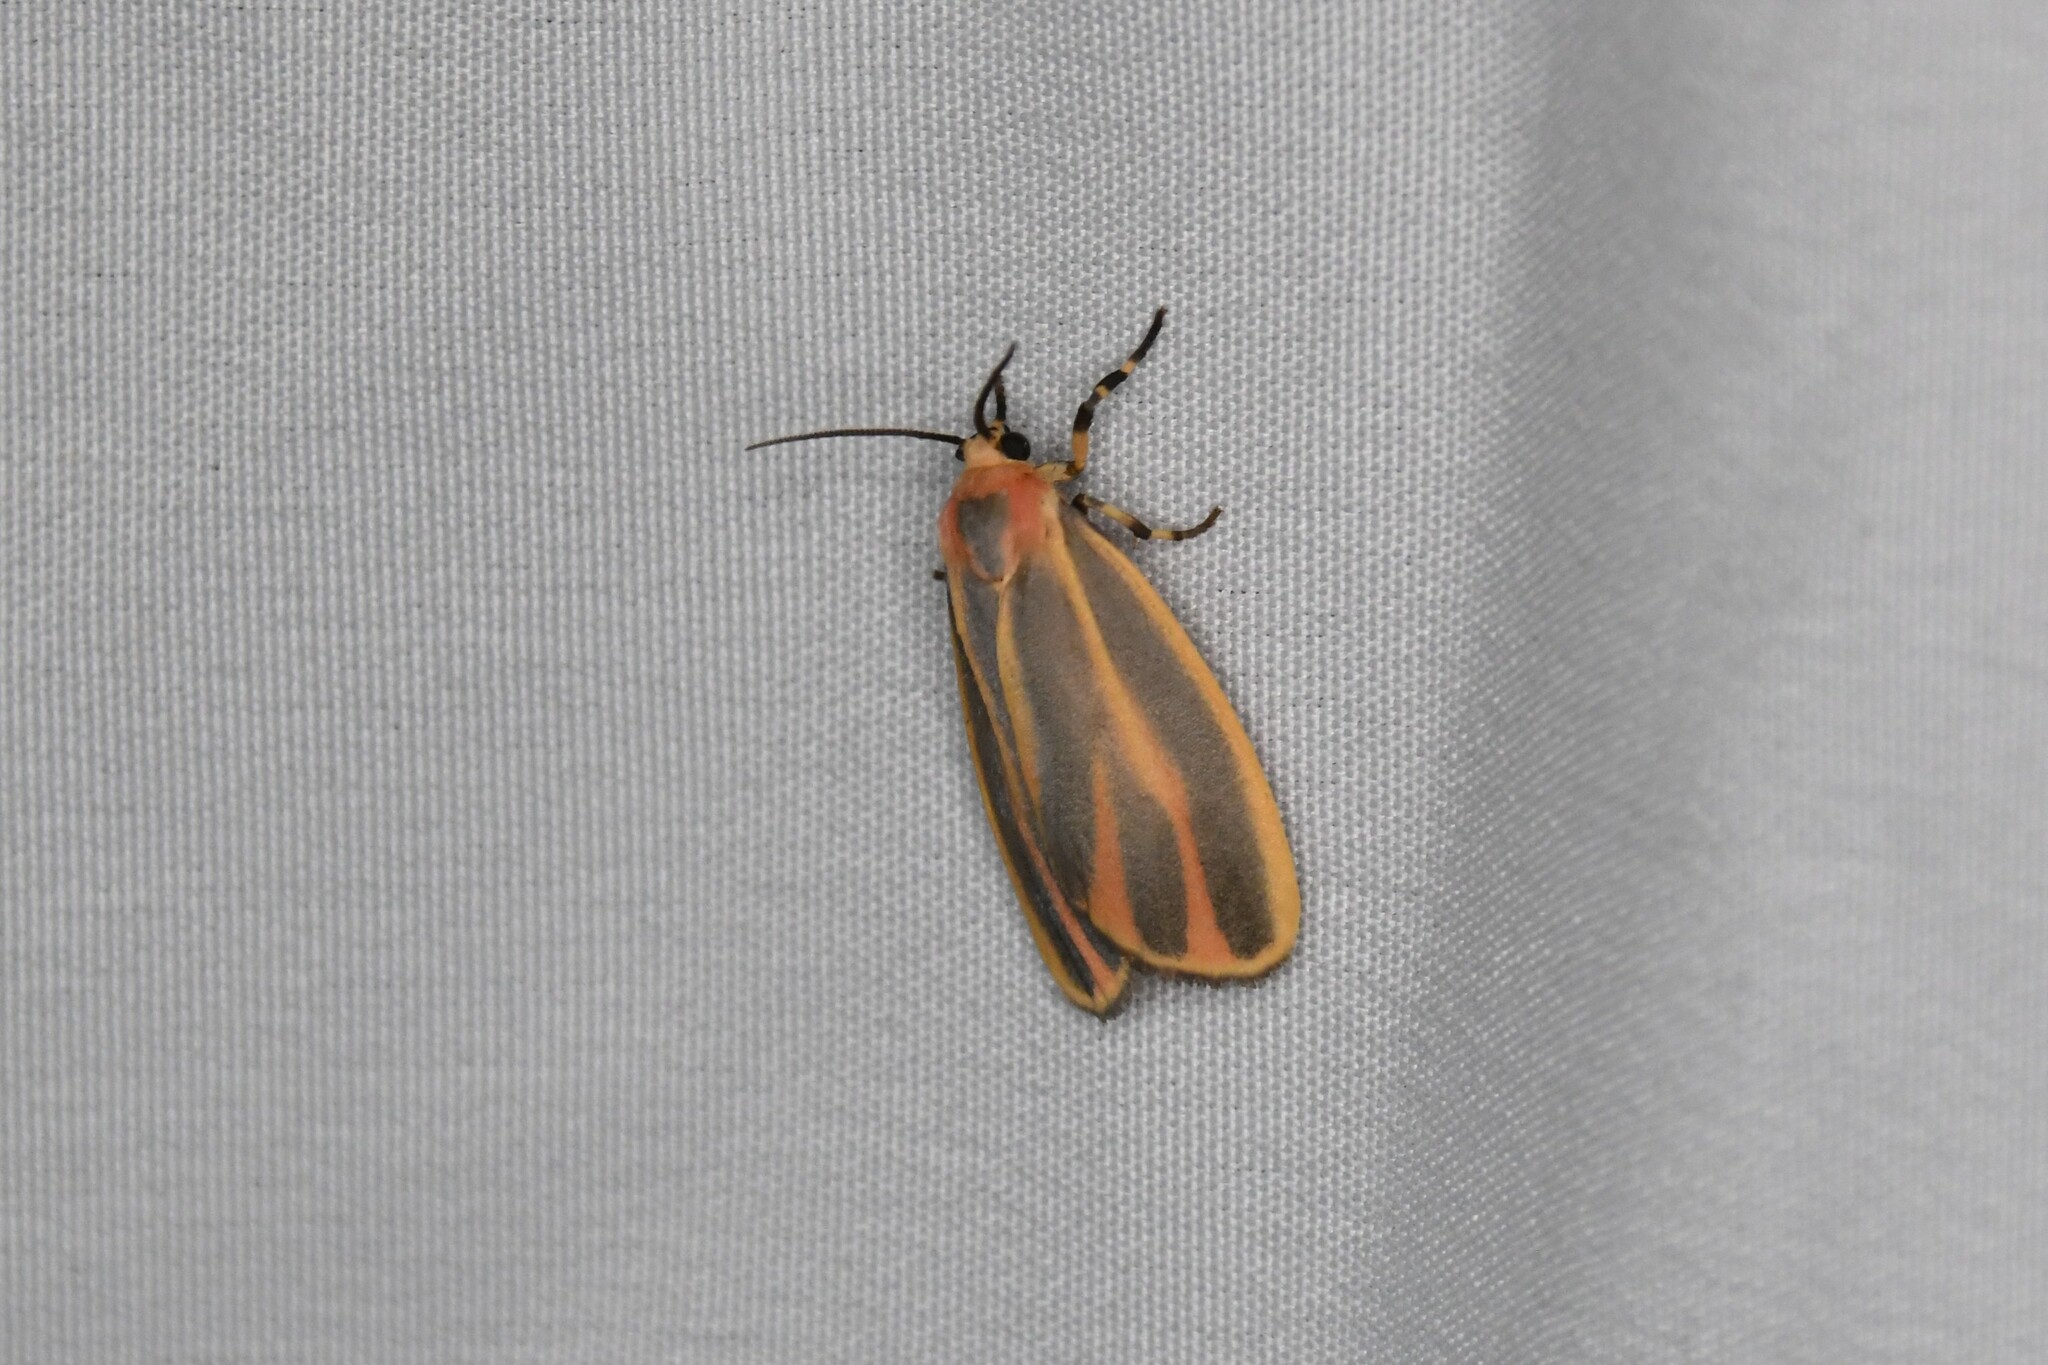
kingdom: Animalia
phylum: Arthropoda
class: Insecta
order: Lepidoptera
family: Erebidae
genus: Hypoprepia
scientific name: Hypoprepia fucosa
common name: Painted lichen moth
